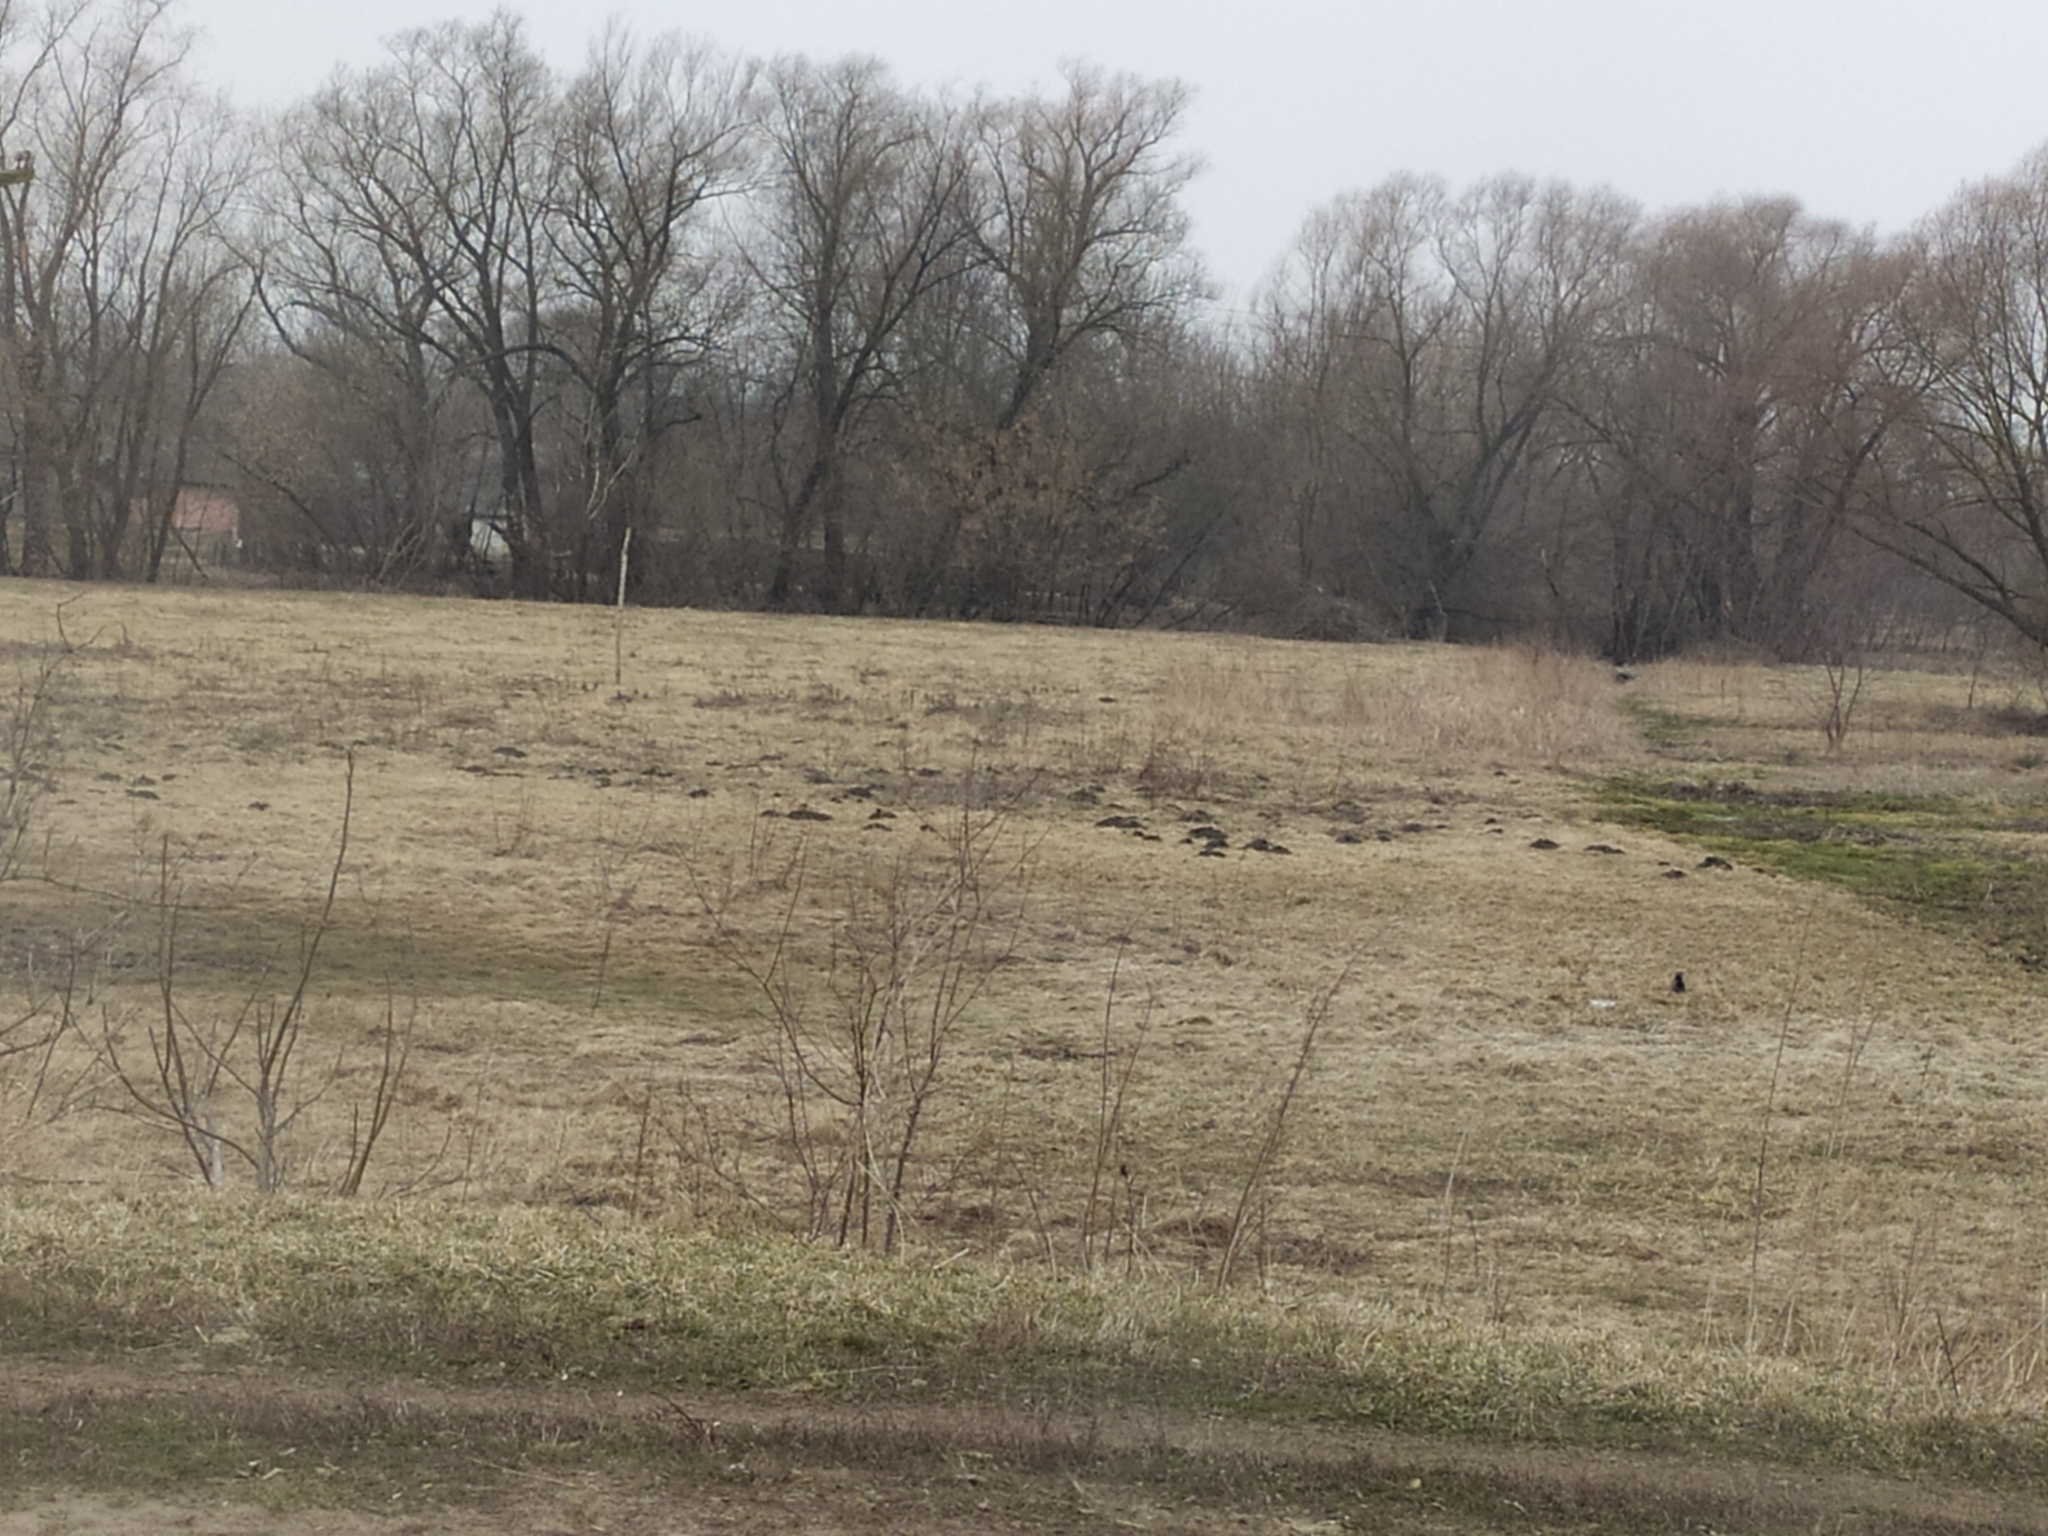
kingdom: Animalia
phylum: Chordata
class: Mammalia
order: Soricomorpha
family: Talpidae
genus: Talpa
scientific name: Talpa europaea
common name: European mole
